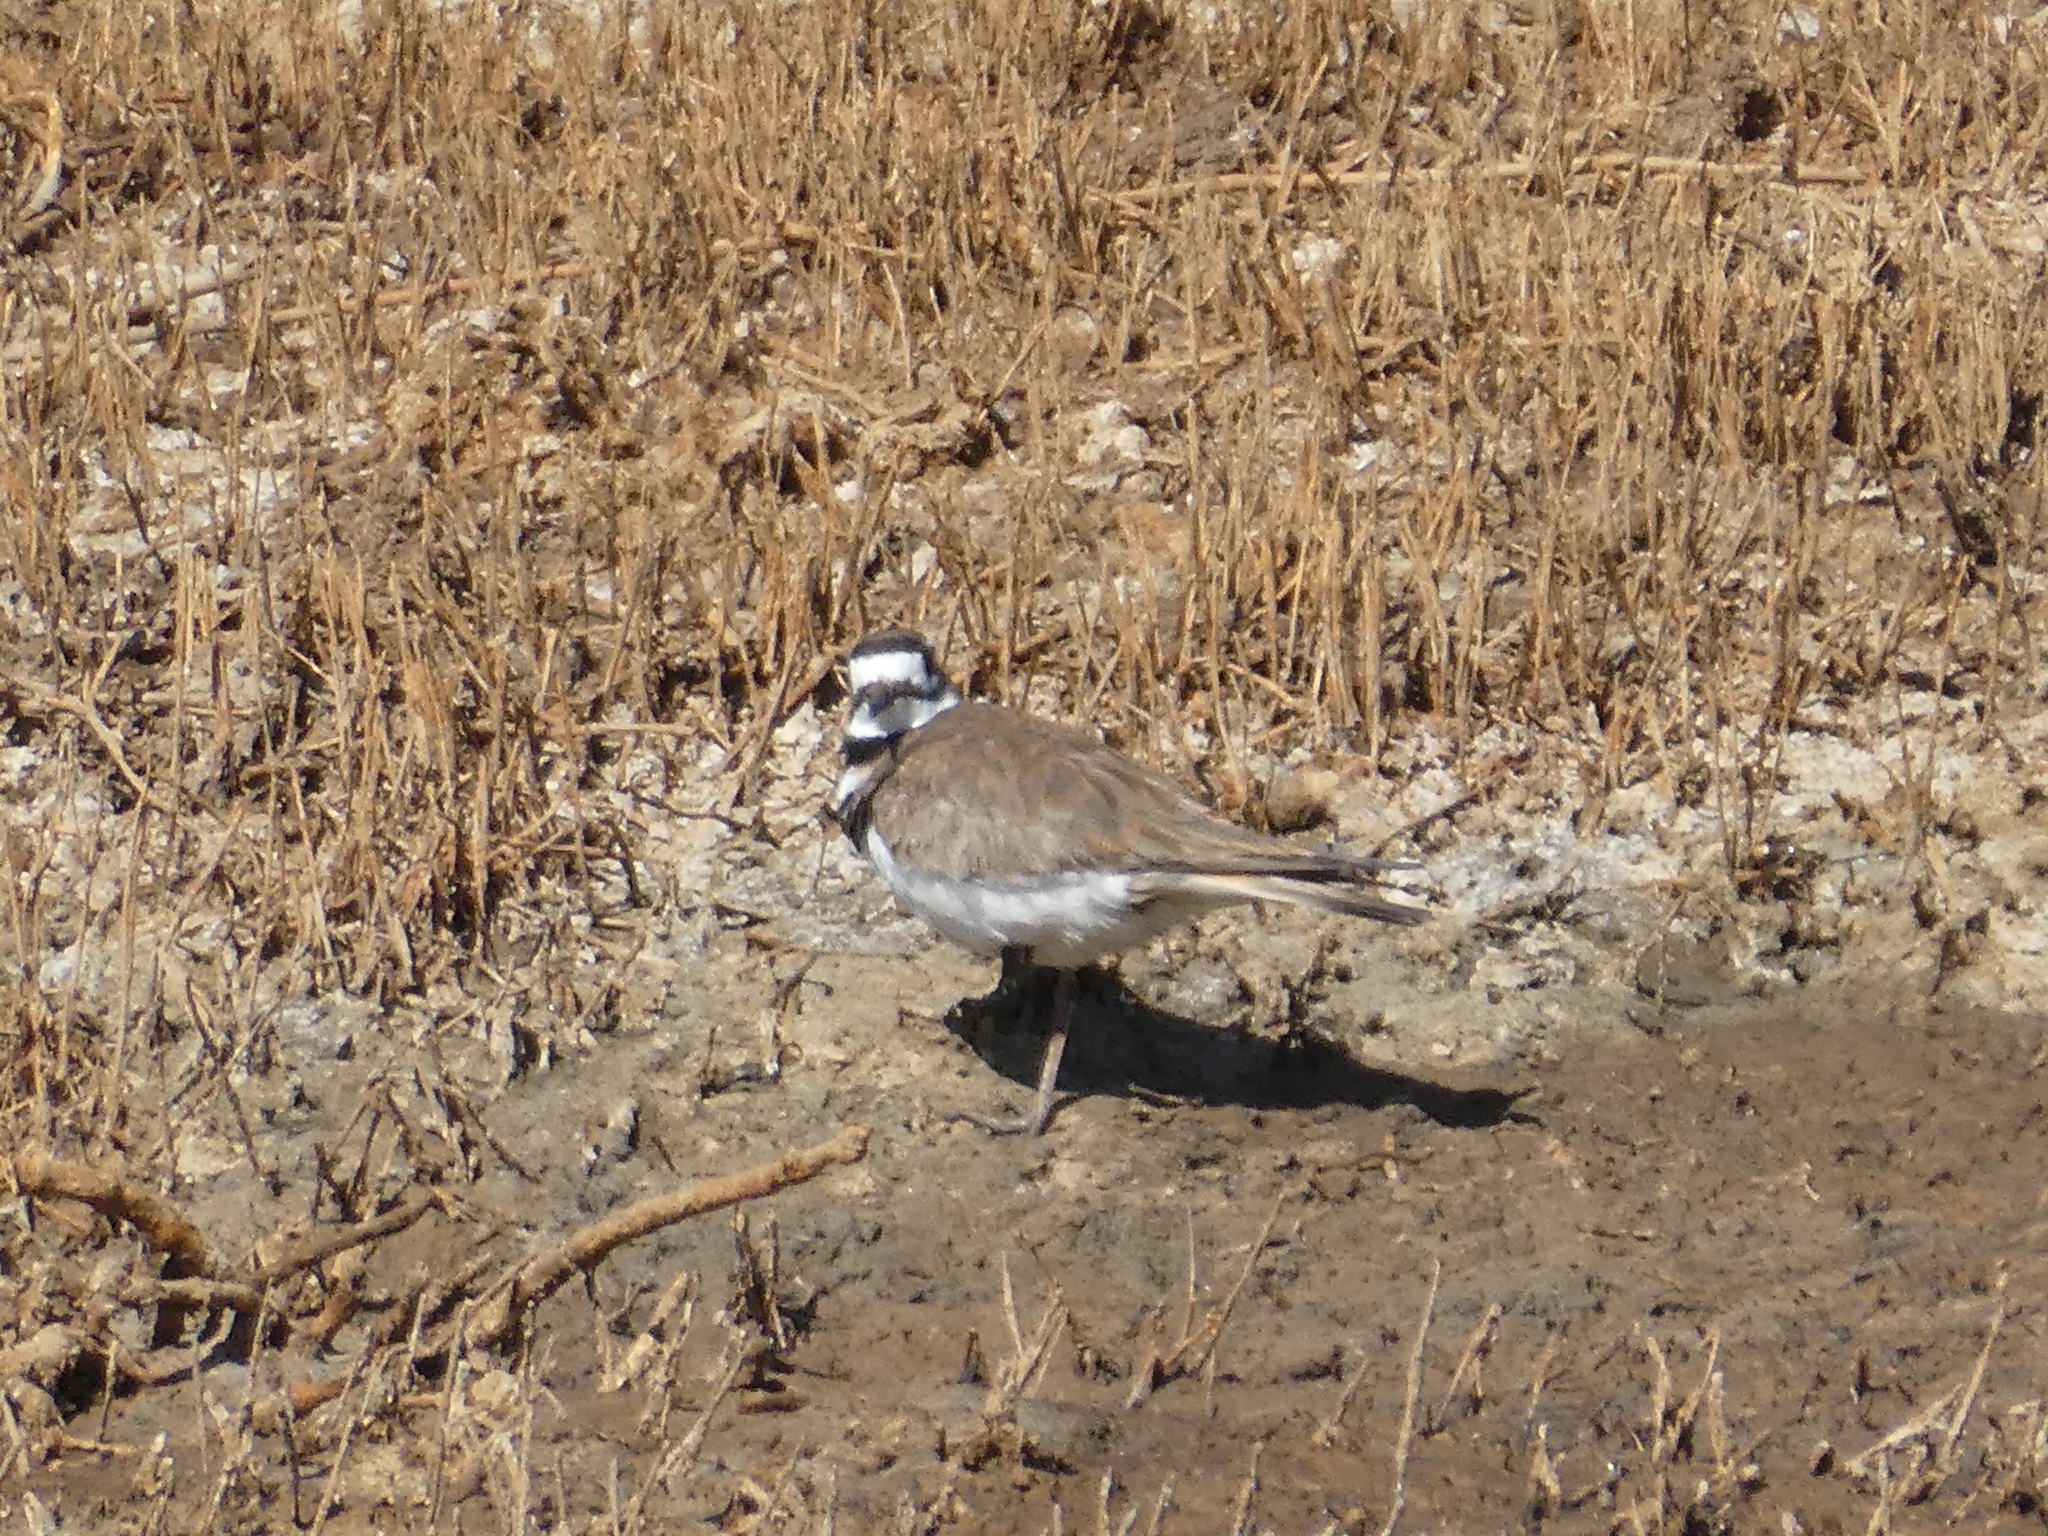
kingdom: Animalia
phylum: Chordata
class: Aves
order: Charadriiformes
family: Charadriidae
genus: Charadrius
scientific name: Charadrius vociferus
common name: Killdeer
